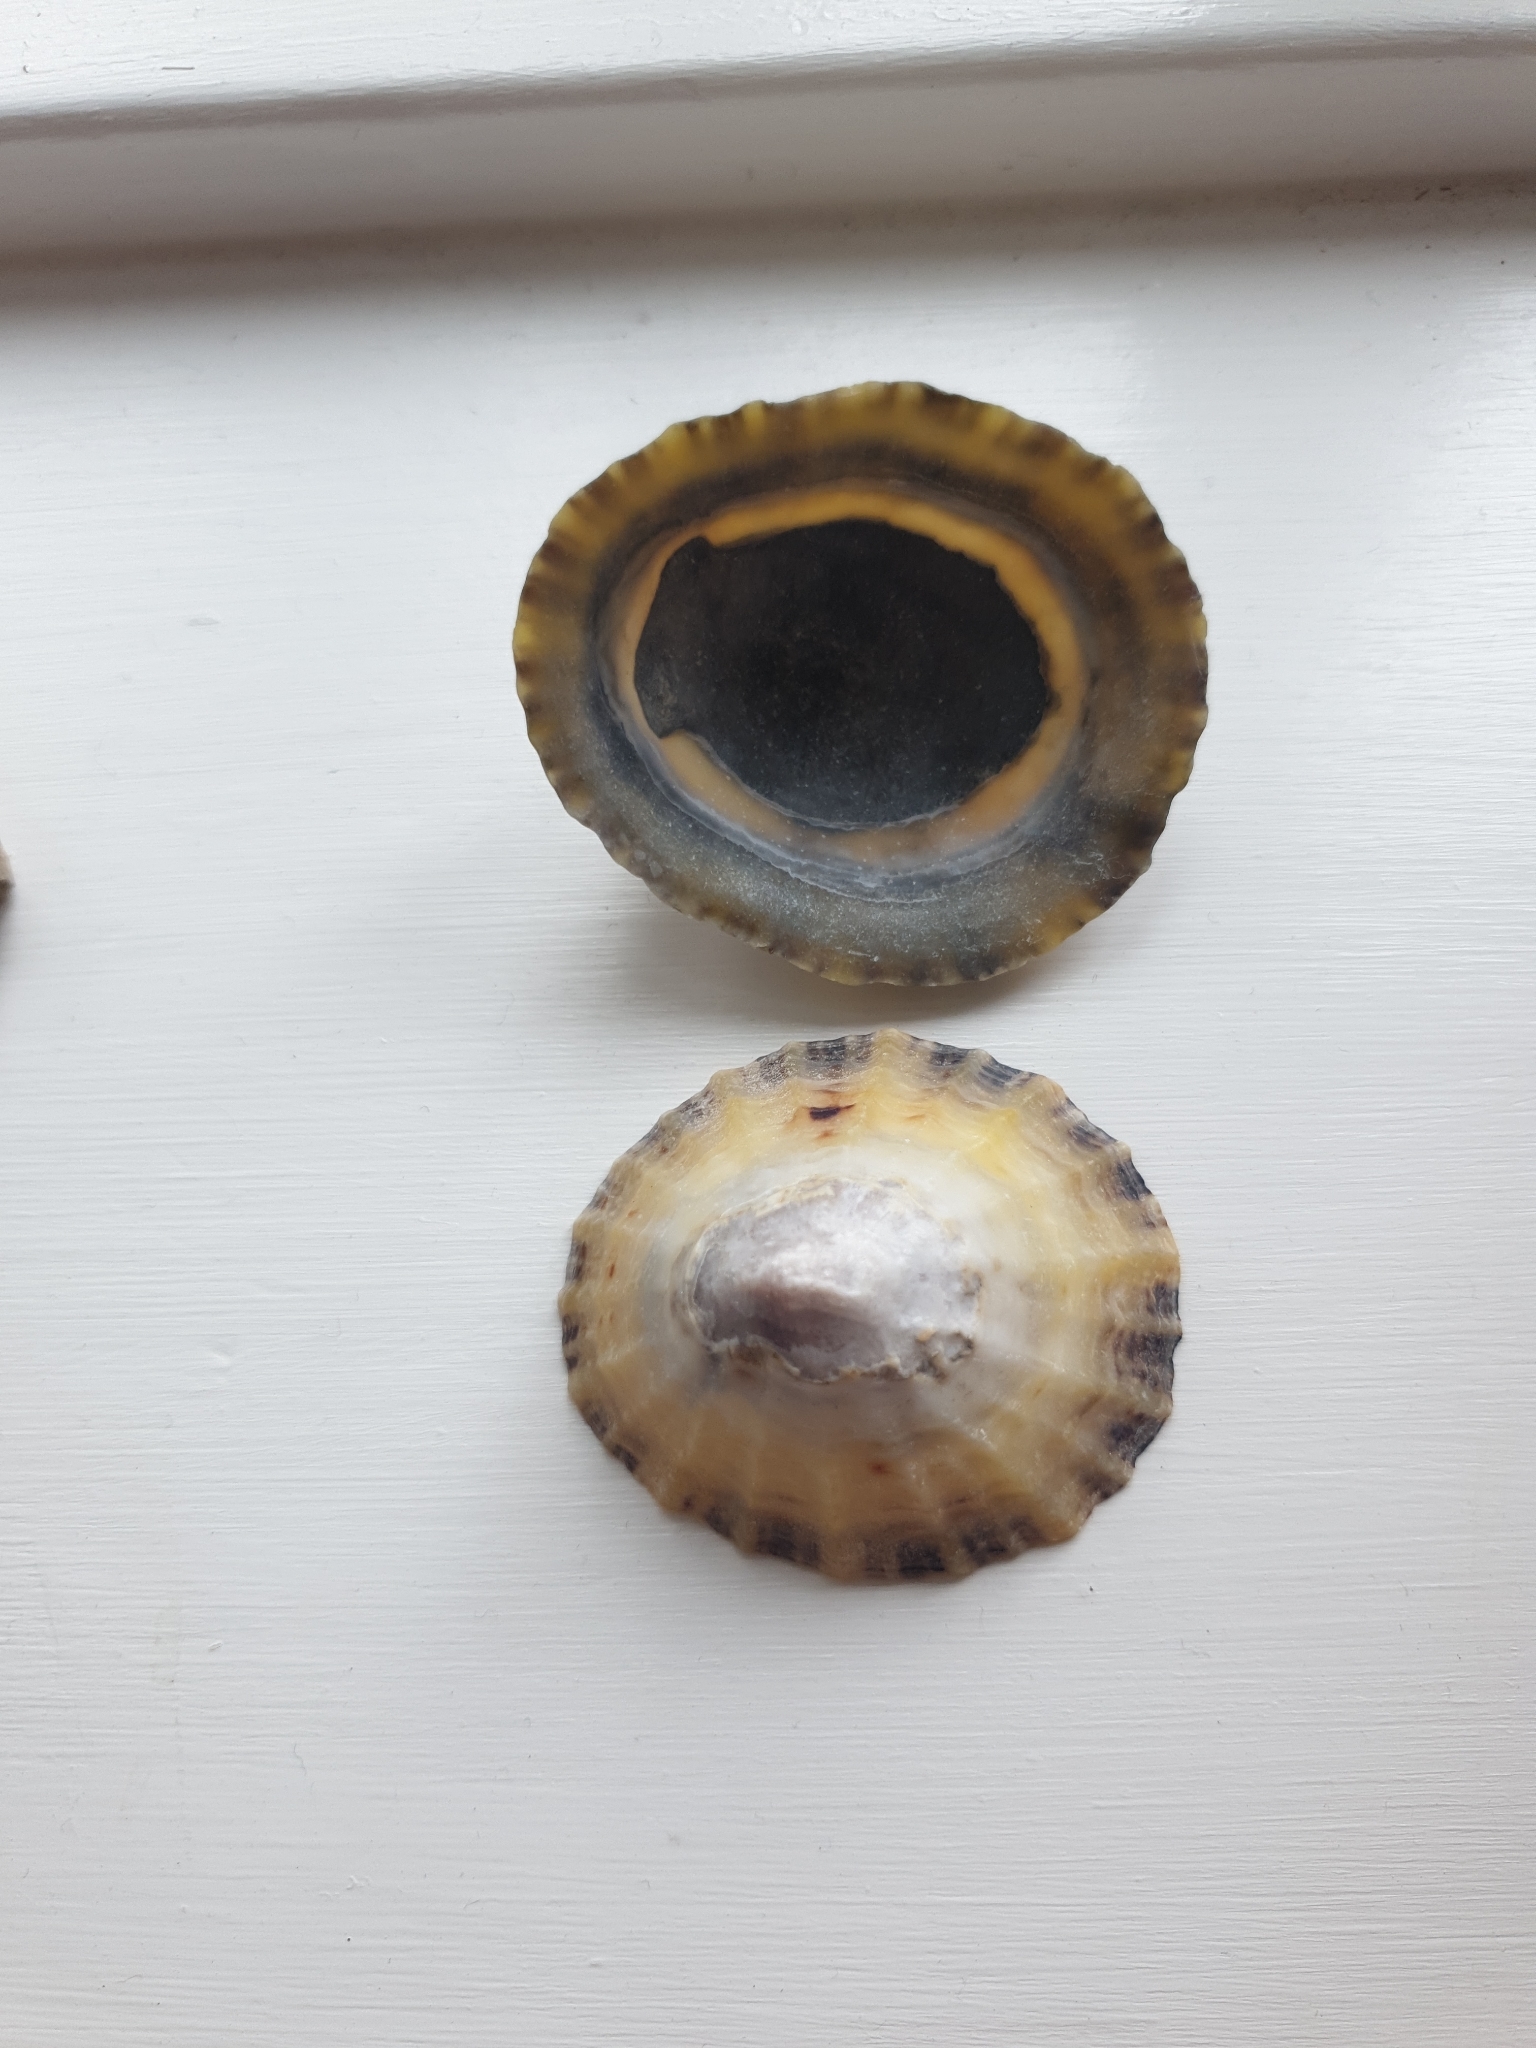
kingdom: Animalia
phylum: Mollusca
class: Gastropoda
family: Patellidae
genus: Patella
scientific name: Patella vulgata
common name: Common limpet
